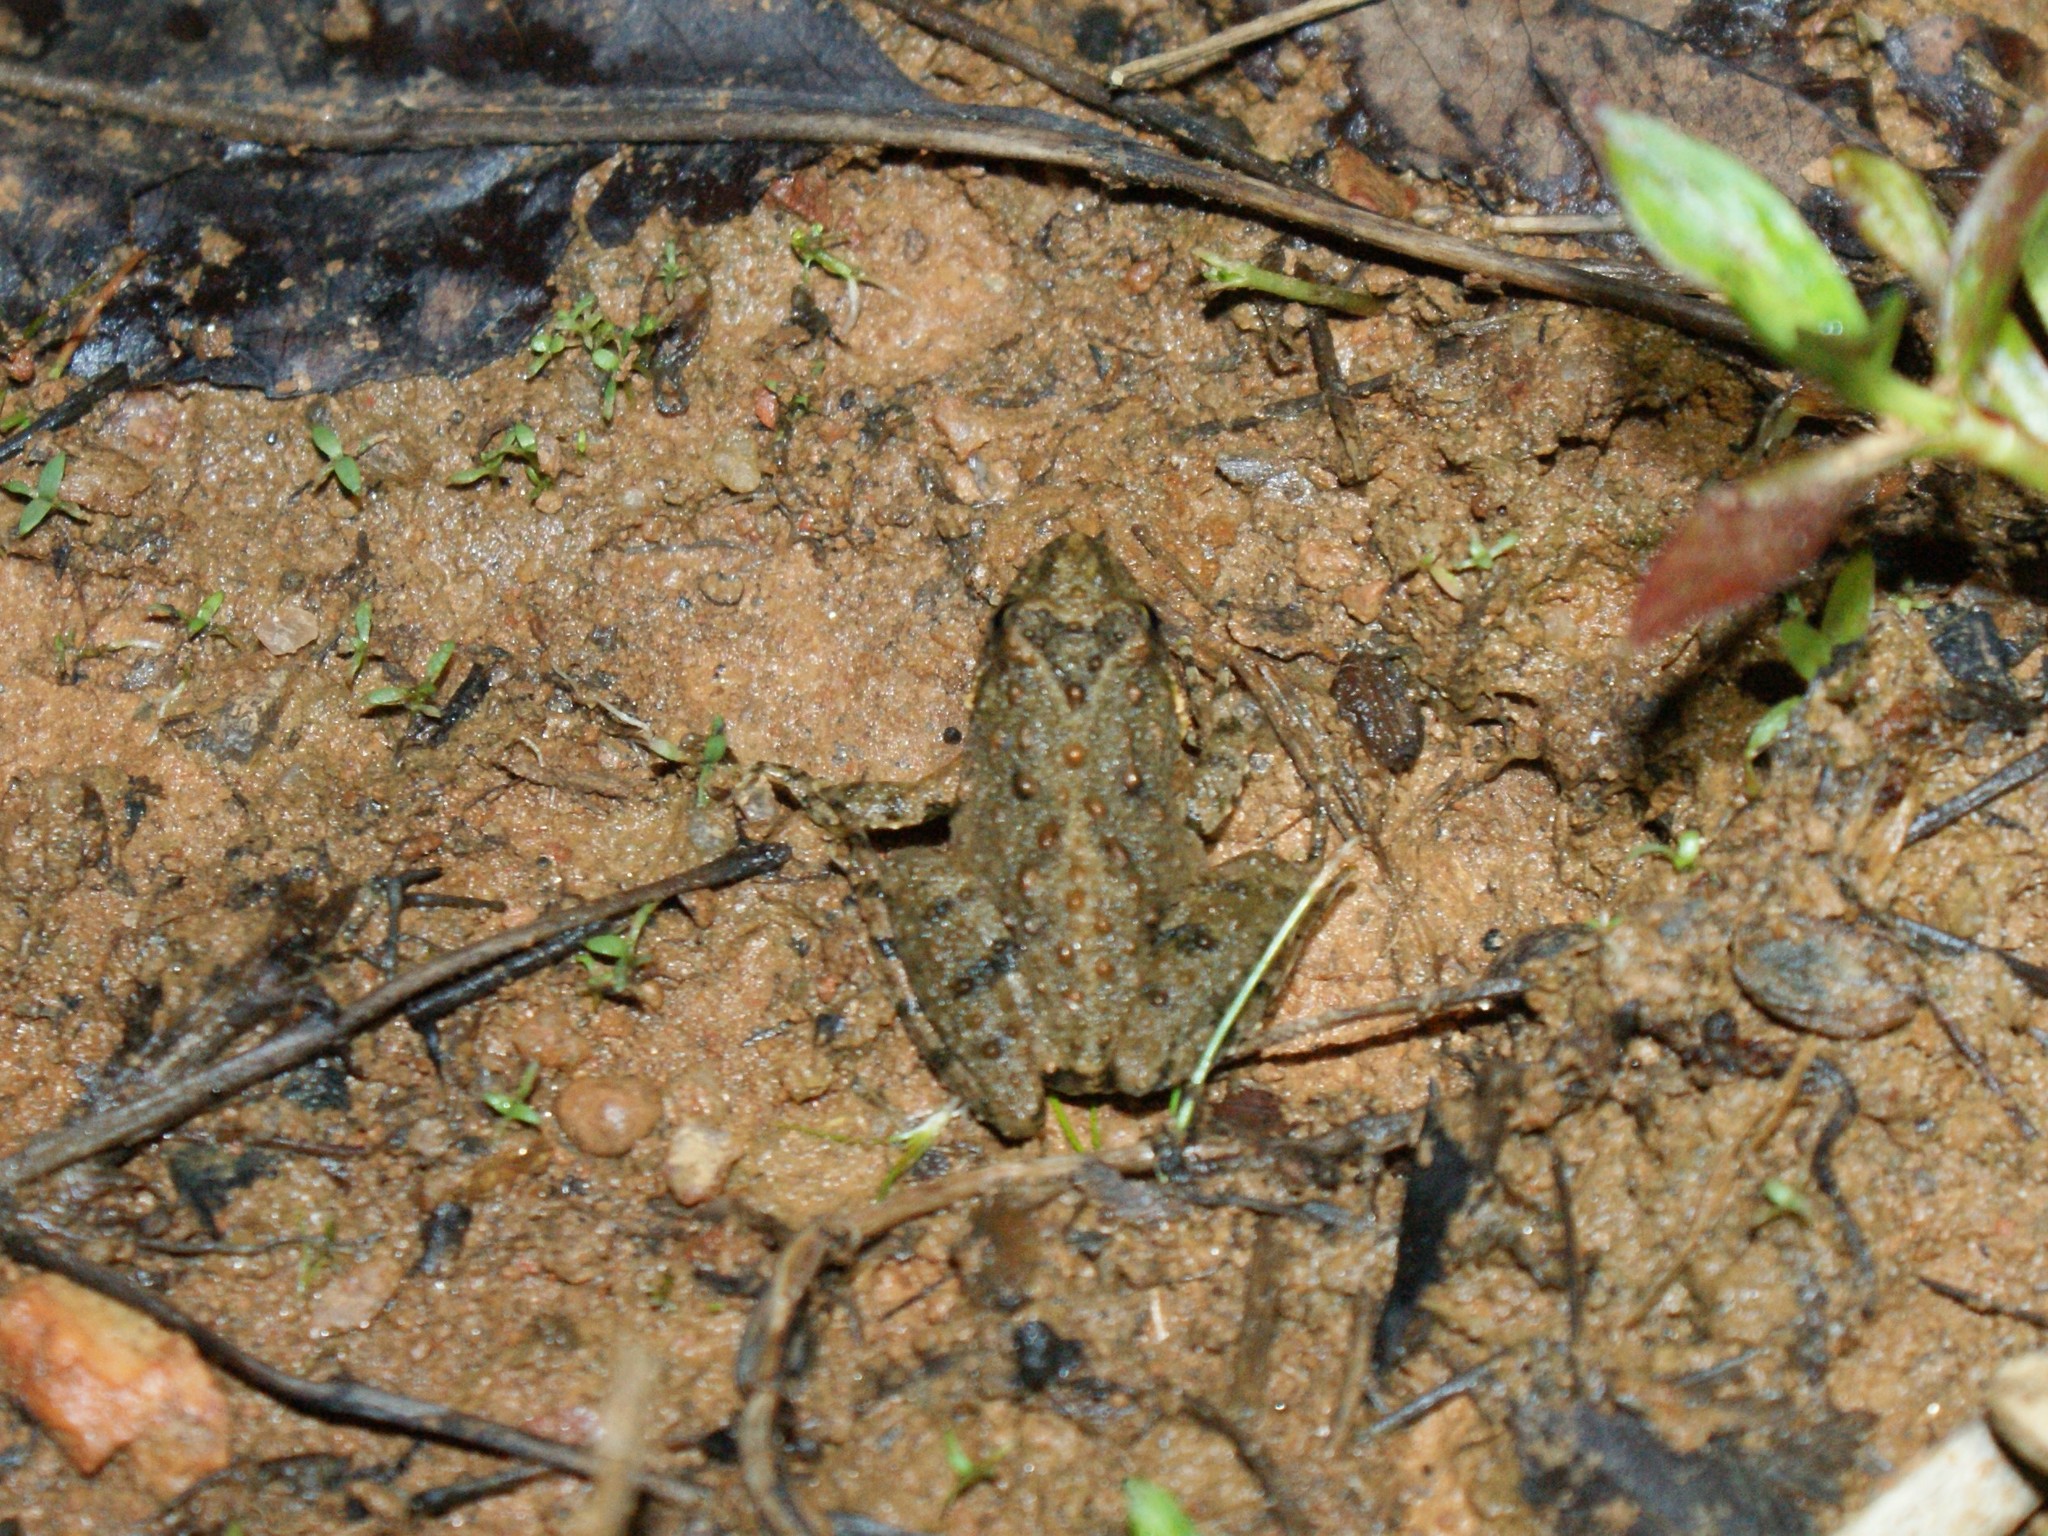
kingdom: Animalia
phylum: Chordata
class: Amphibia
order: Anura
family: Hylidae
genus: Acris
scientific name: Acris crepitans
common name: Northern cricket frog
